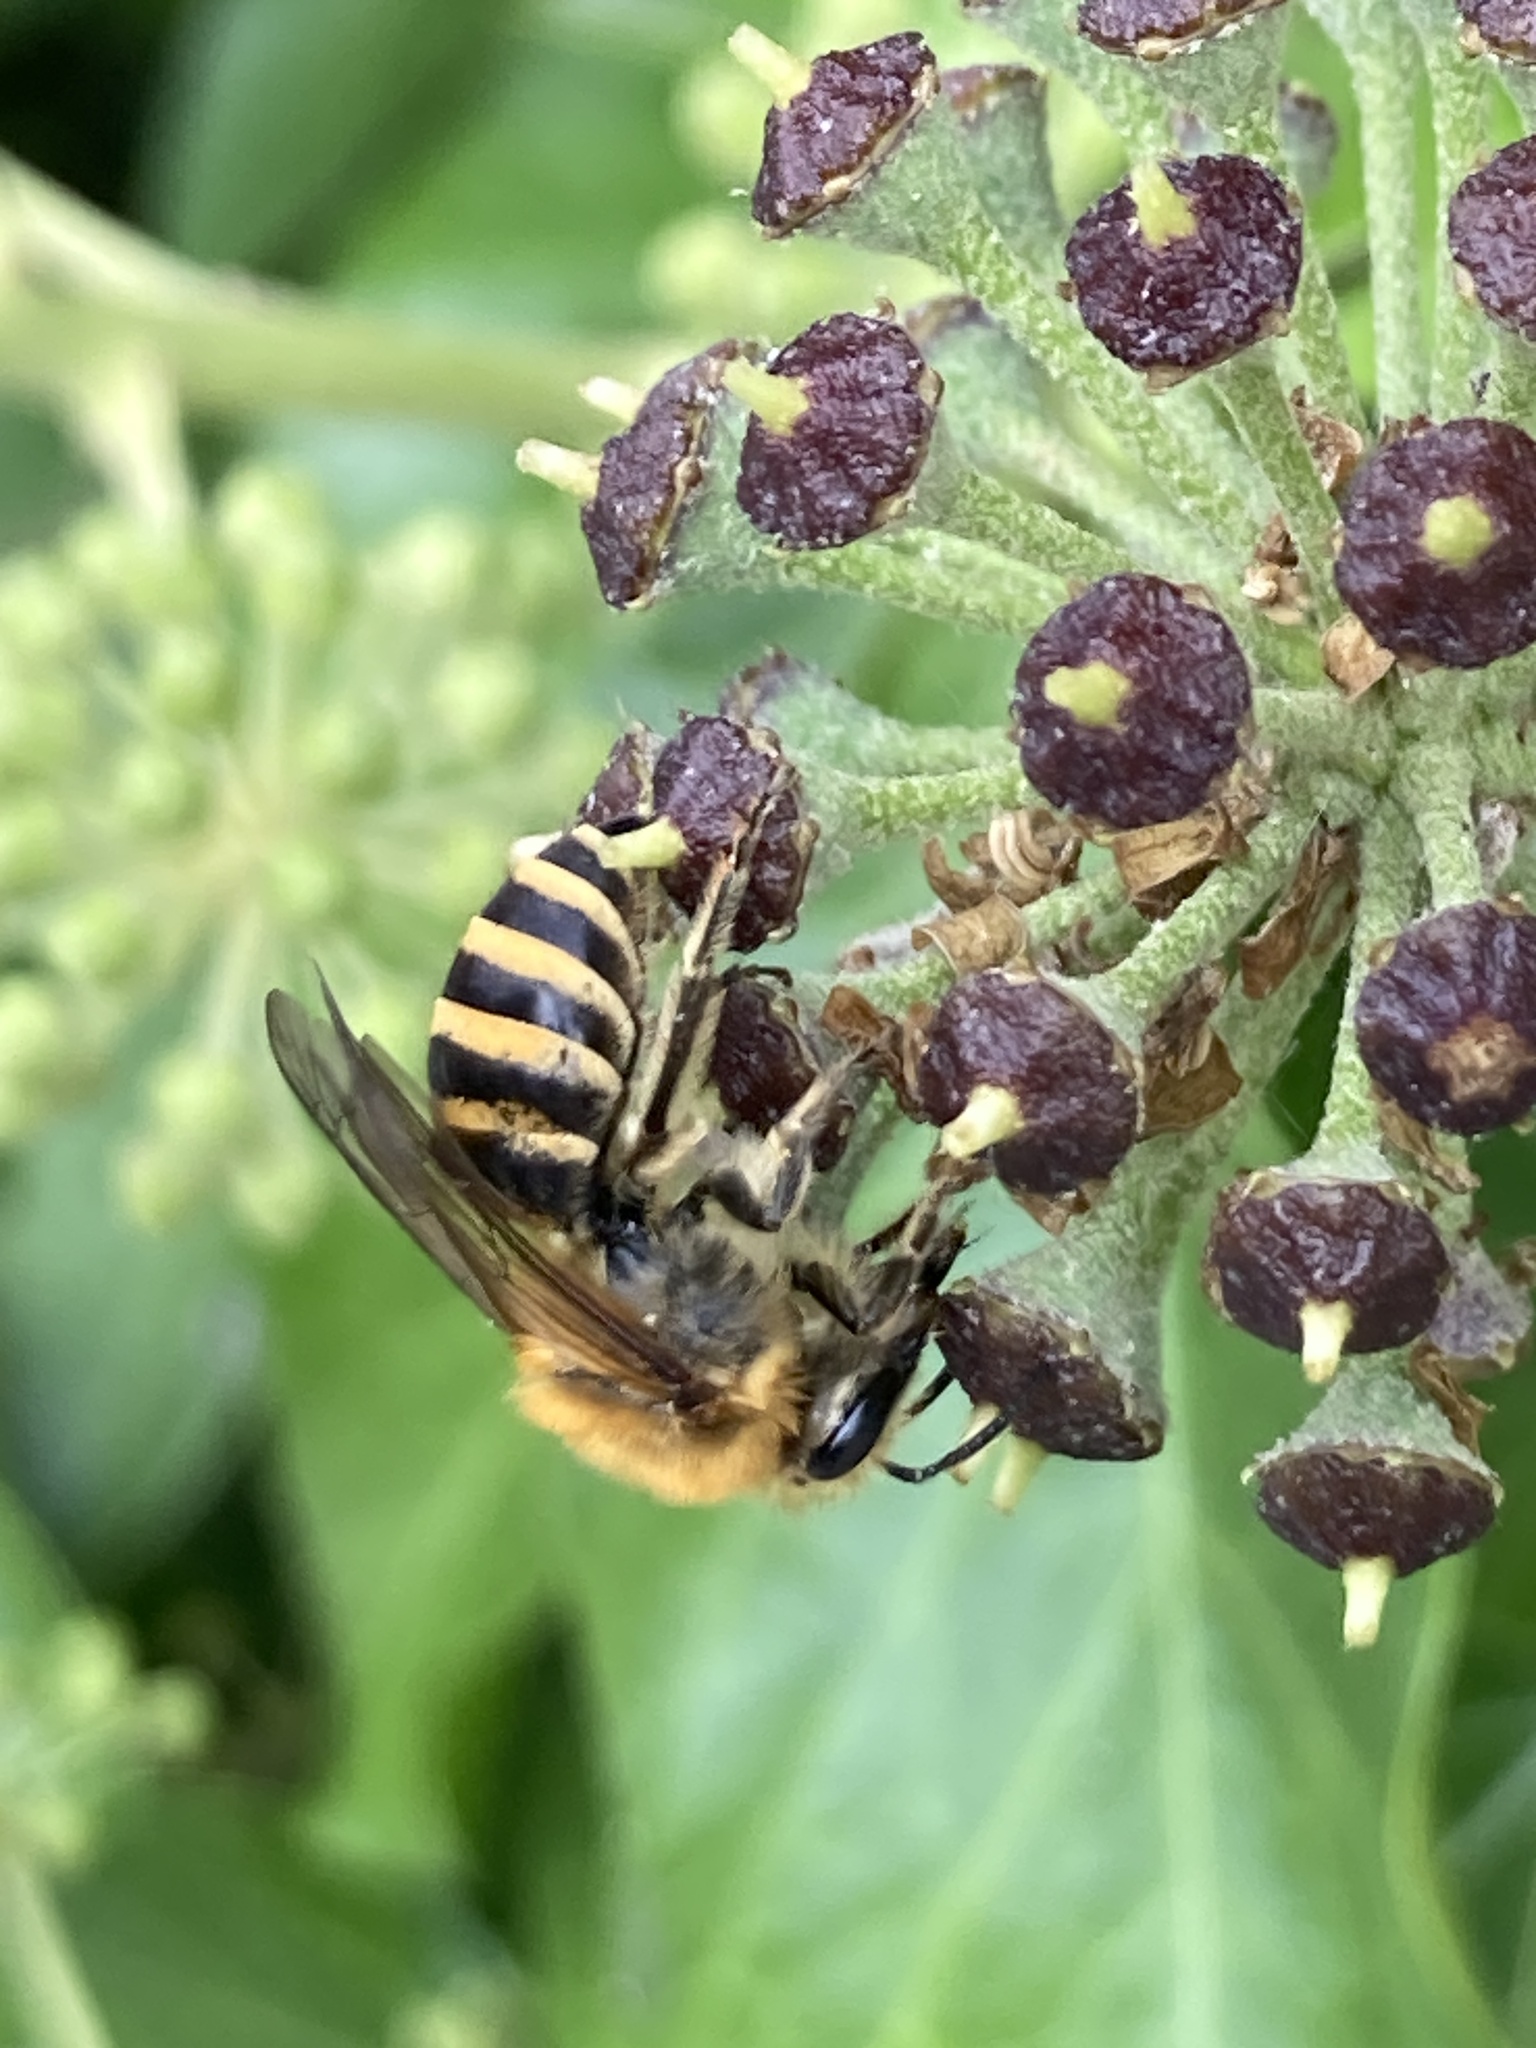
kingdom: Animalia
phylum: Arthropoda
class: Insecta
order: Hymenoptera
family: Colletidae
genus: Colletes
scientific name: Colletes hederae
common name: Ivy bee
